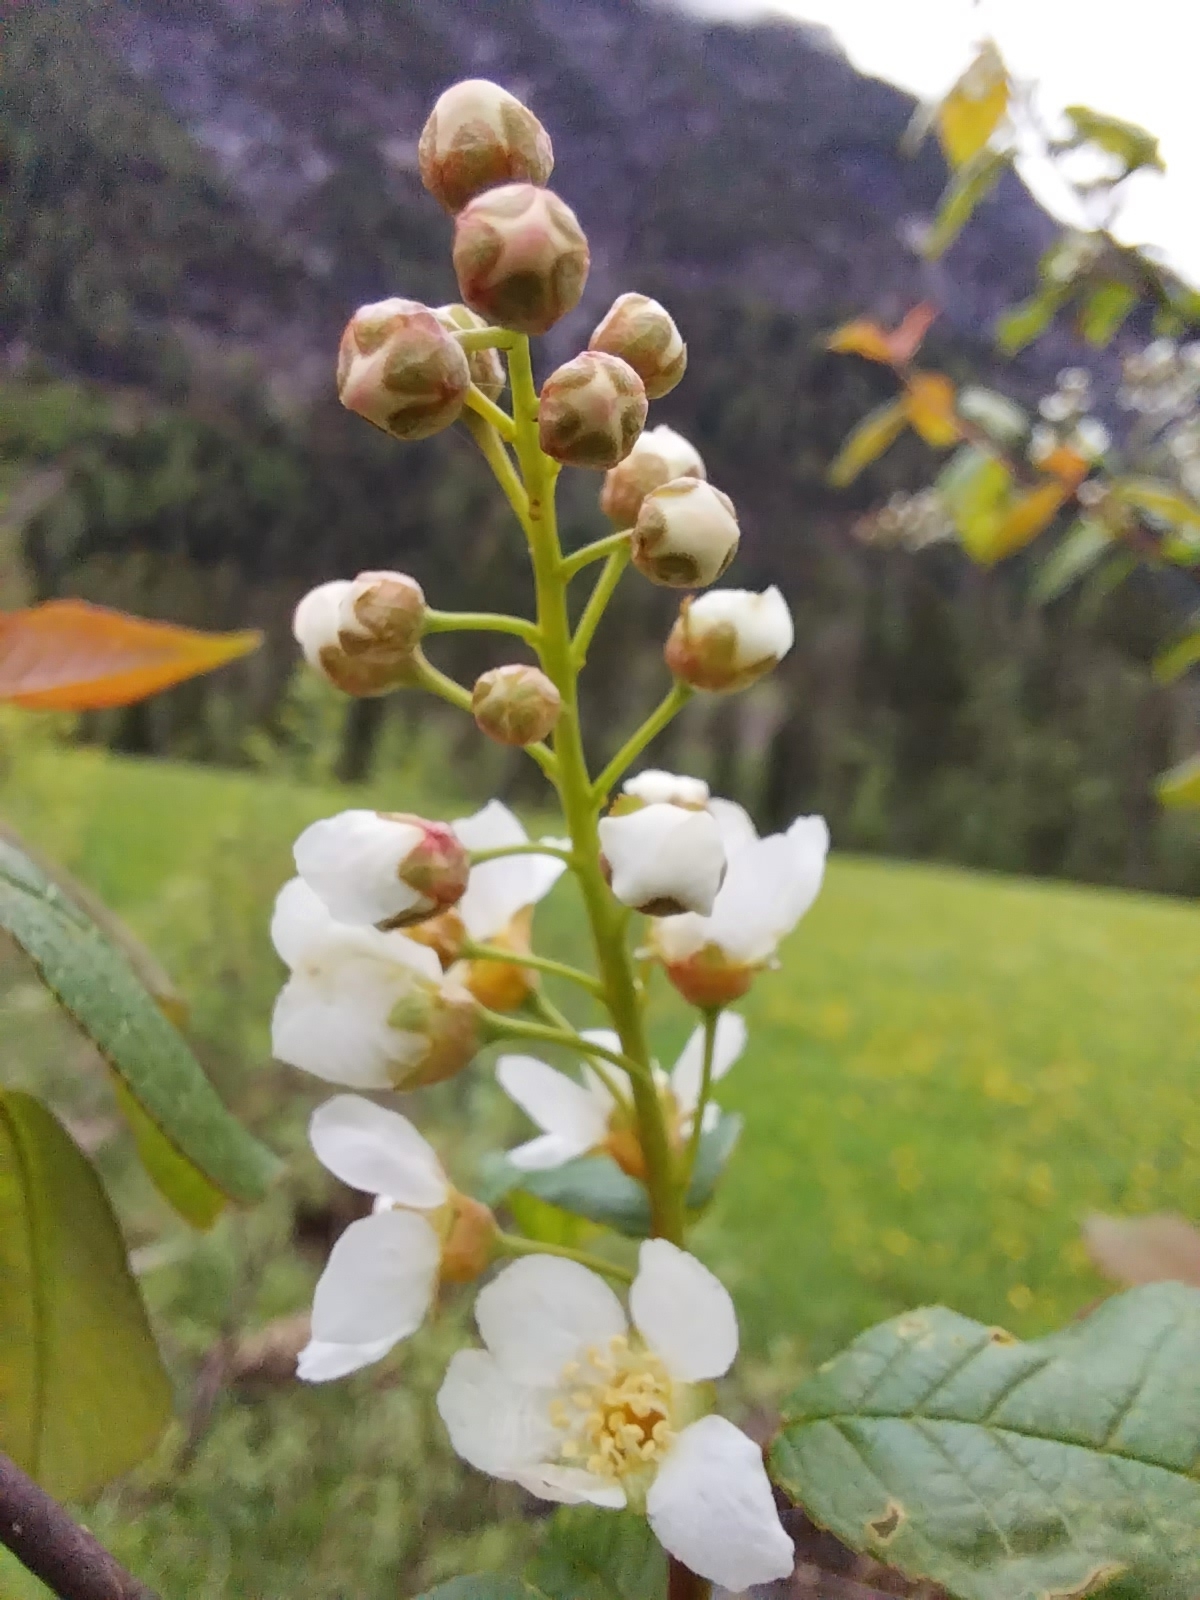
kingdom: Plantae
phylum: Tracheophyta
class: Magnoliopsida
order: Rosales
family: Rosaceae
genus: Prunus
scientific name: Prunus padus
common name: Bird cherry
